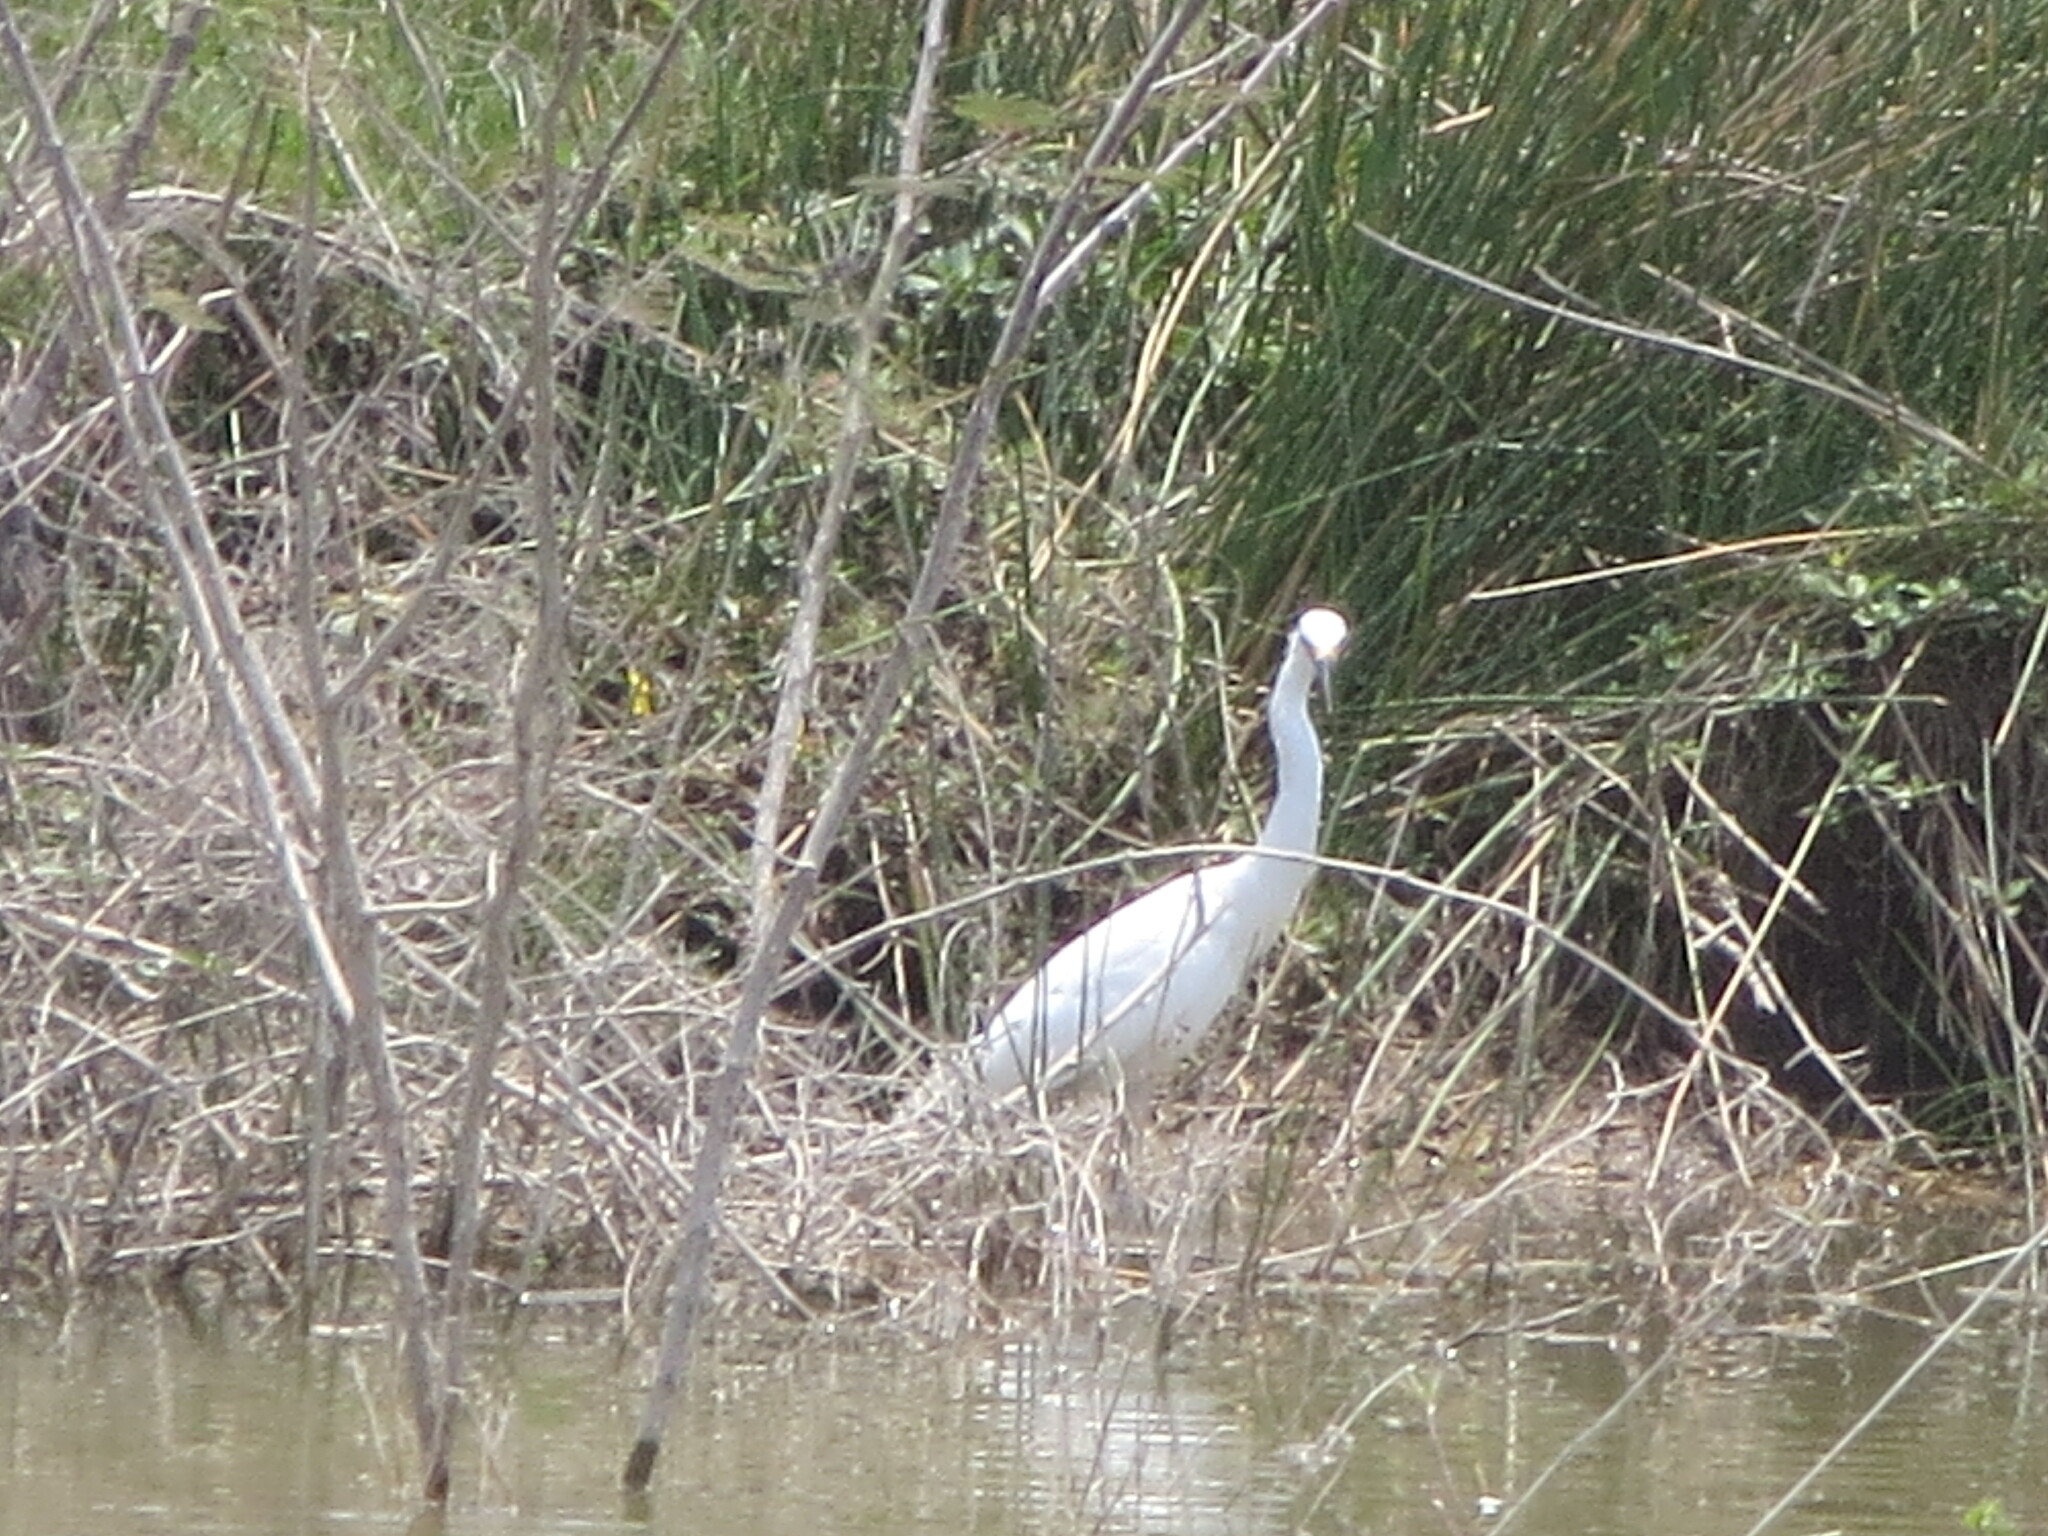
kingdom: Animalia
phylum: Chordata
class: Aves
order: Pelecaniformes
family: Ardeidae
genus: Egretta
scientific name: Egretta thula
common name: Snowy egret
